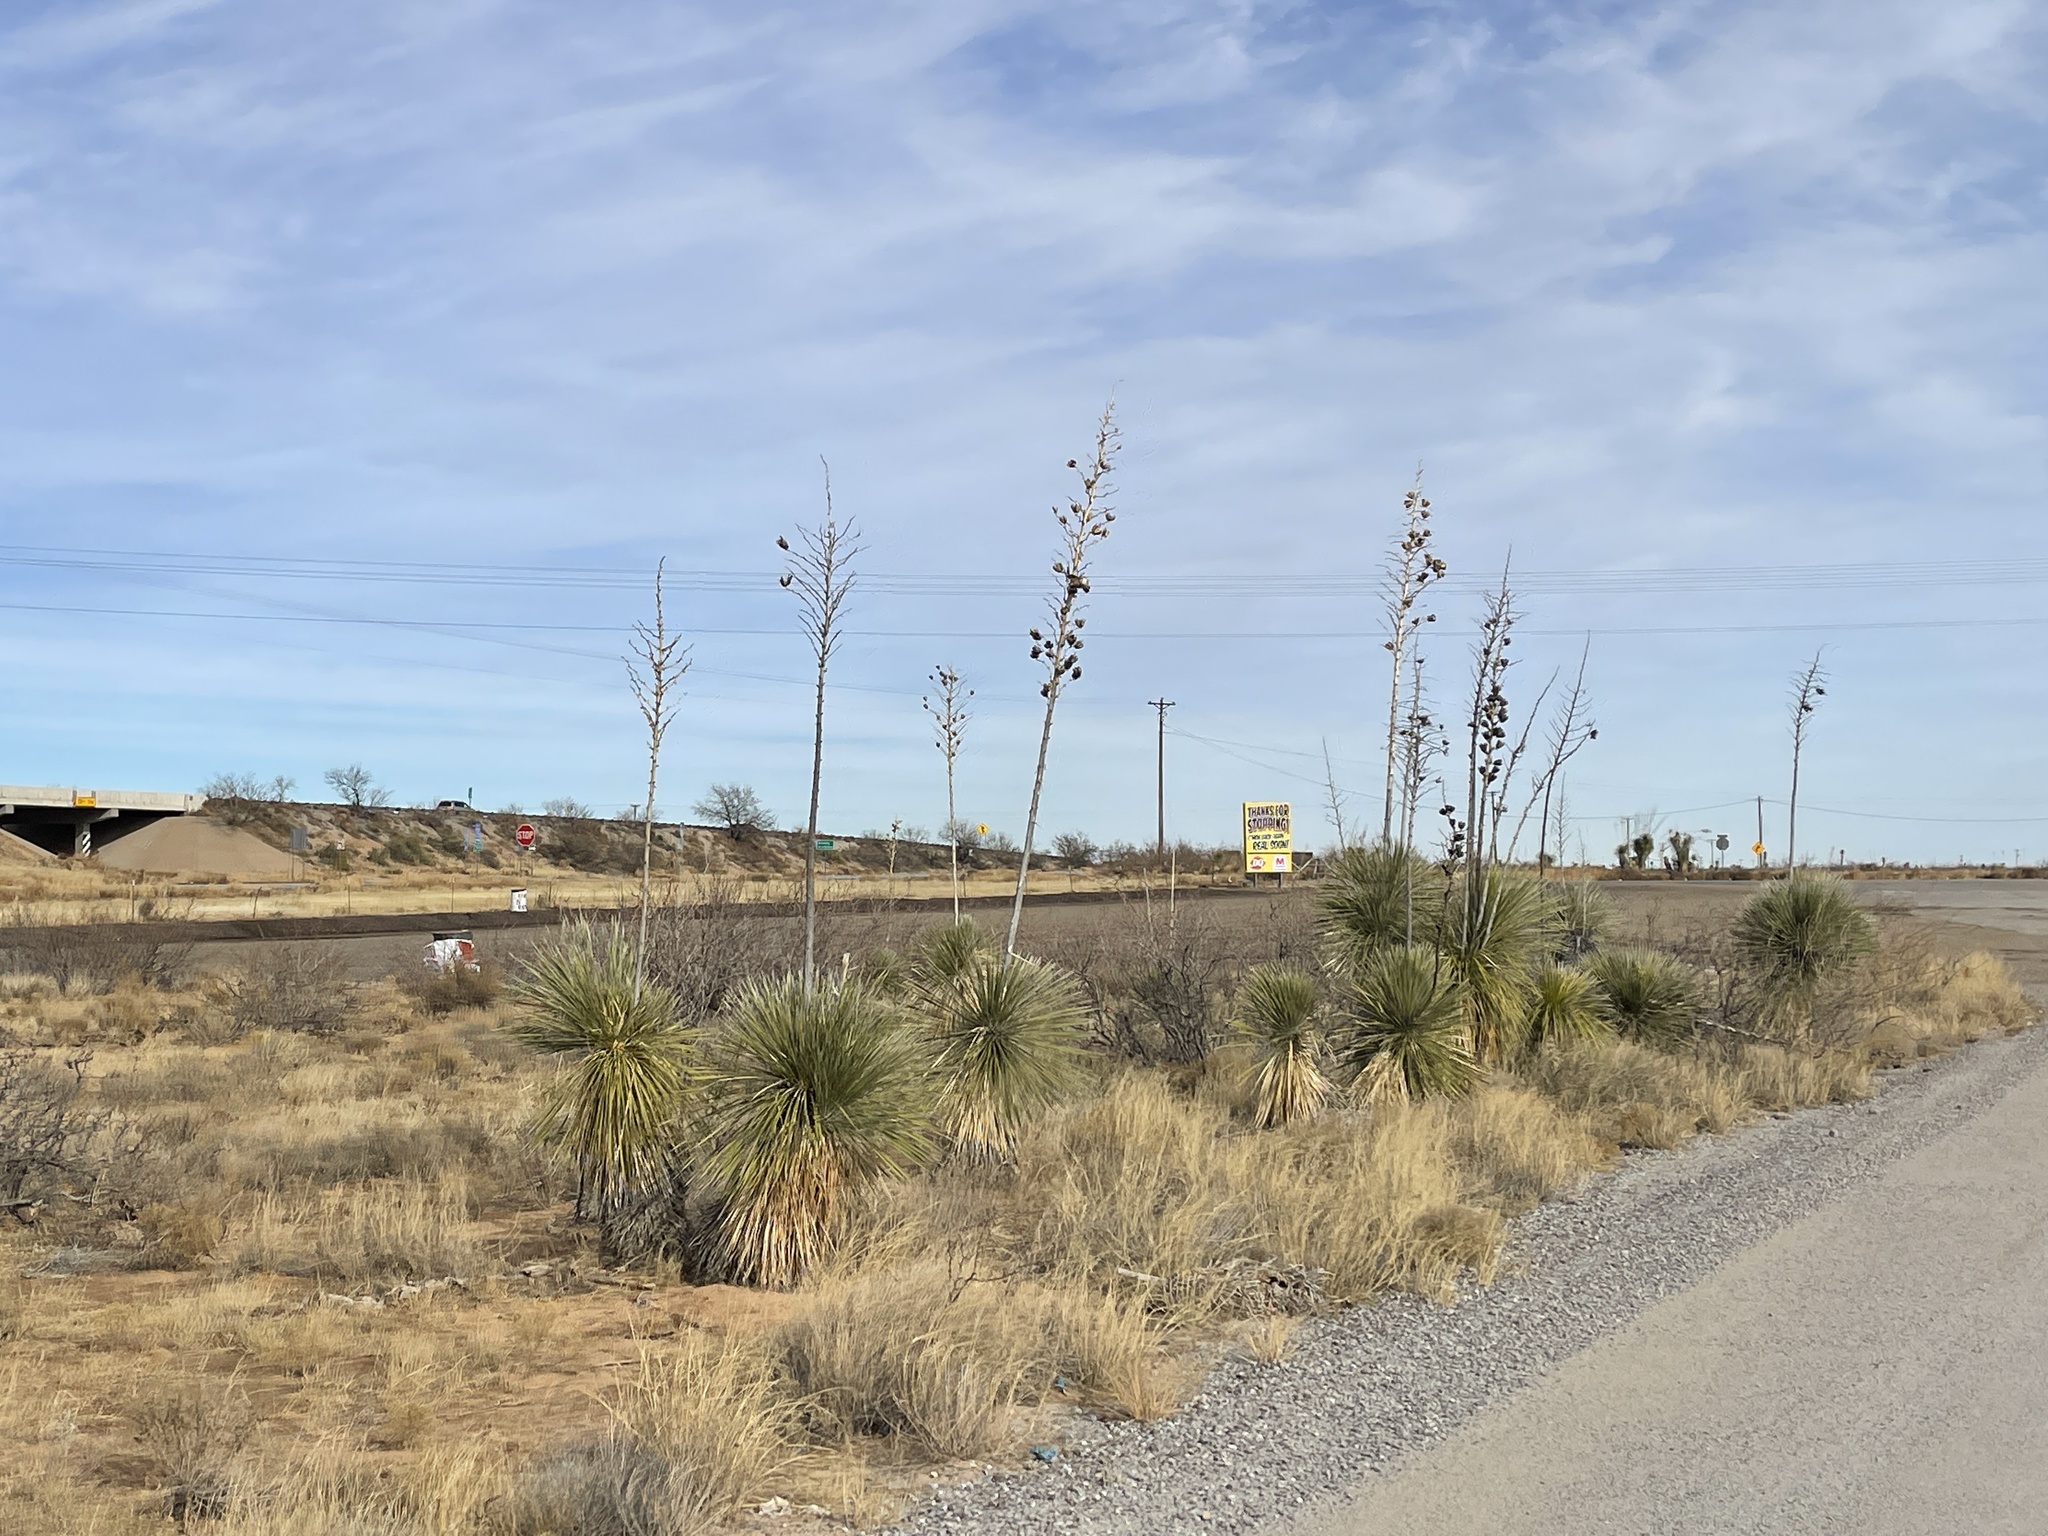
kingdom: Plantae
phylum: Tracheophyta
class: Liliopsida
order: Asparagales
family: Asparagaceae
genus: Yucca
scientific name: Yucca elata
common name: Palmella
